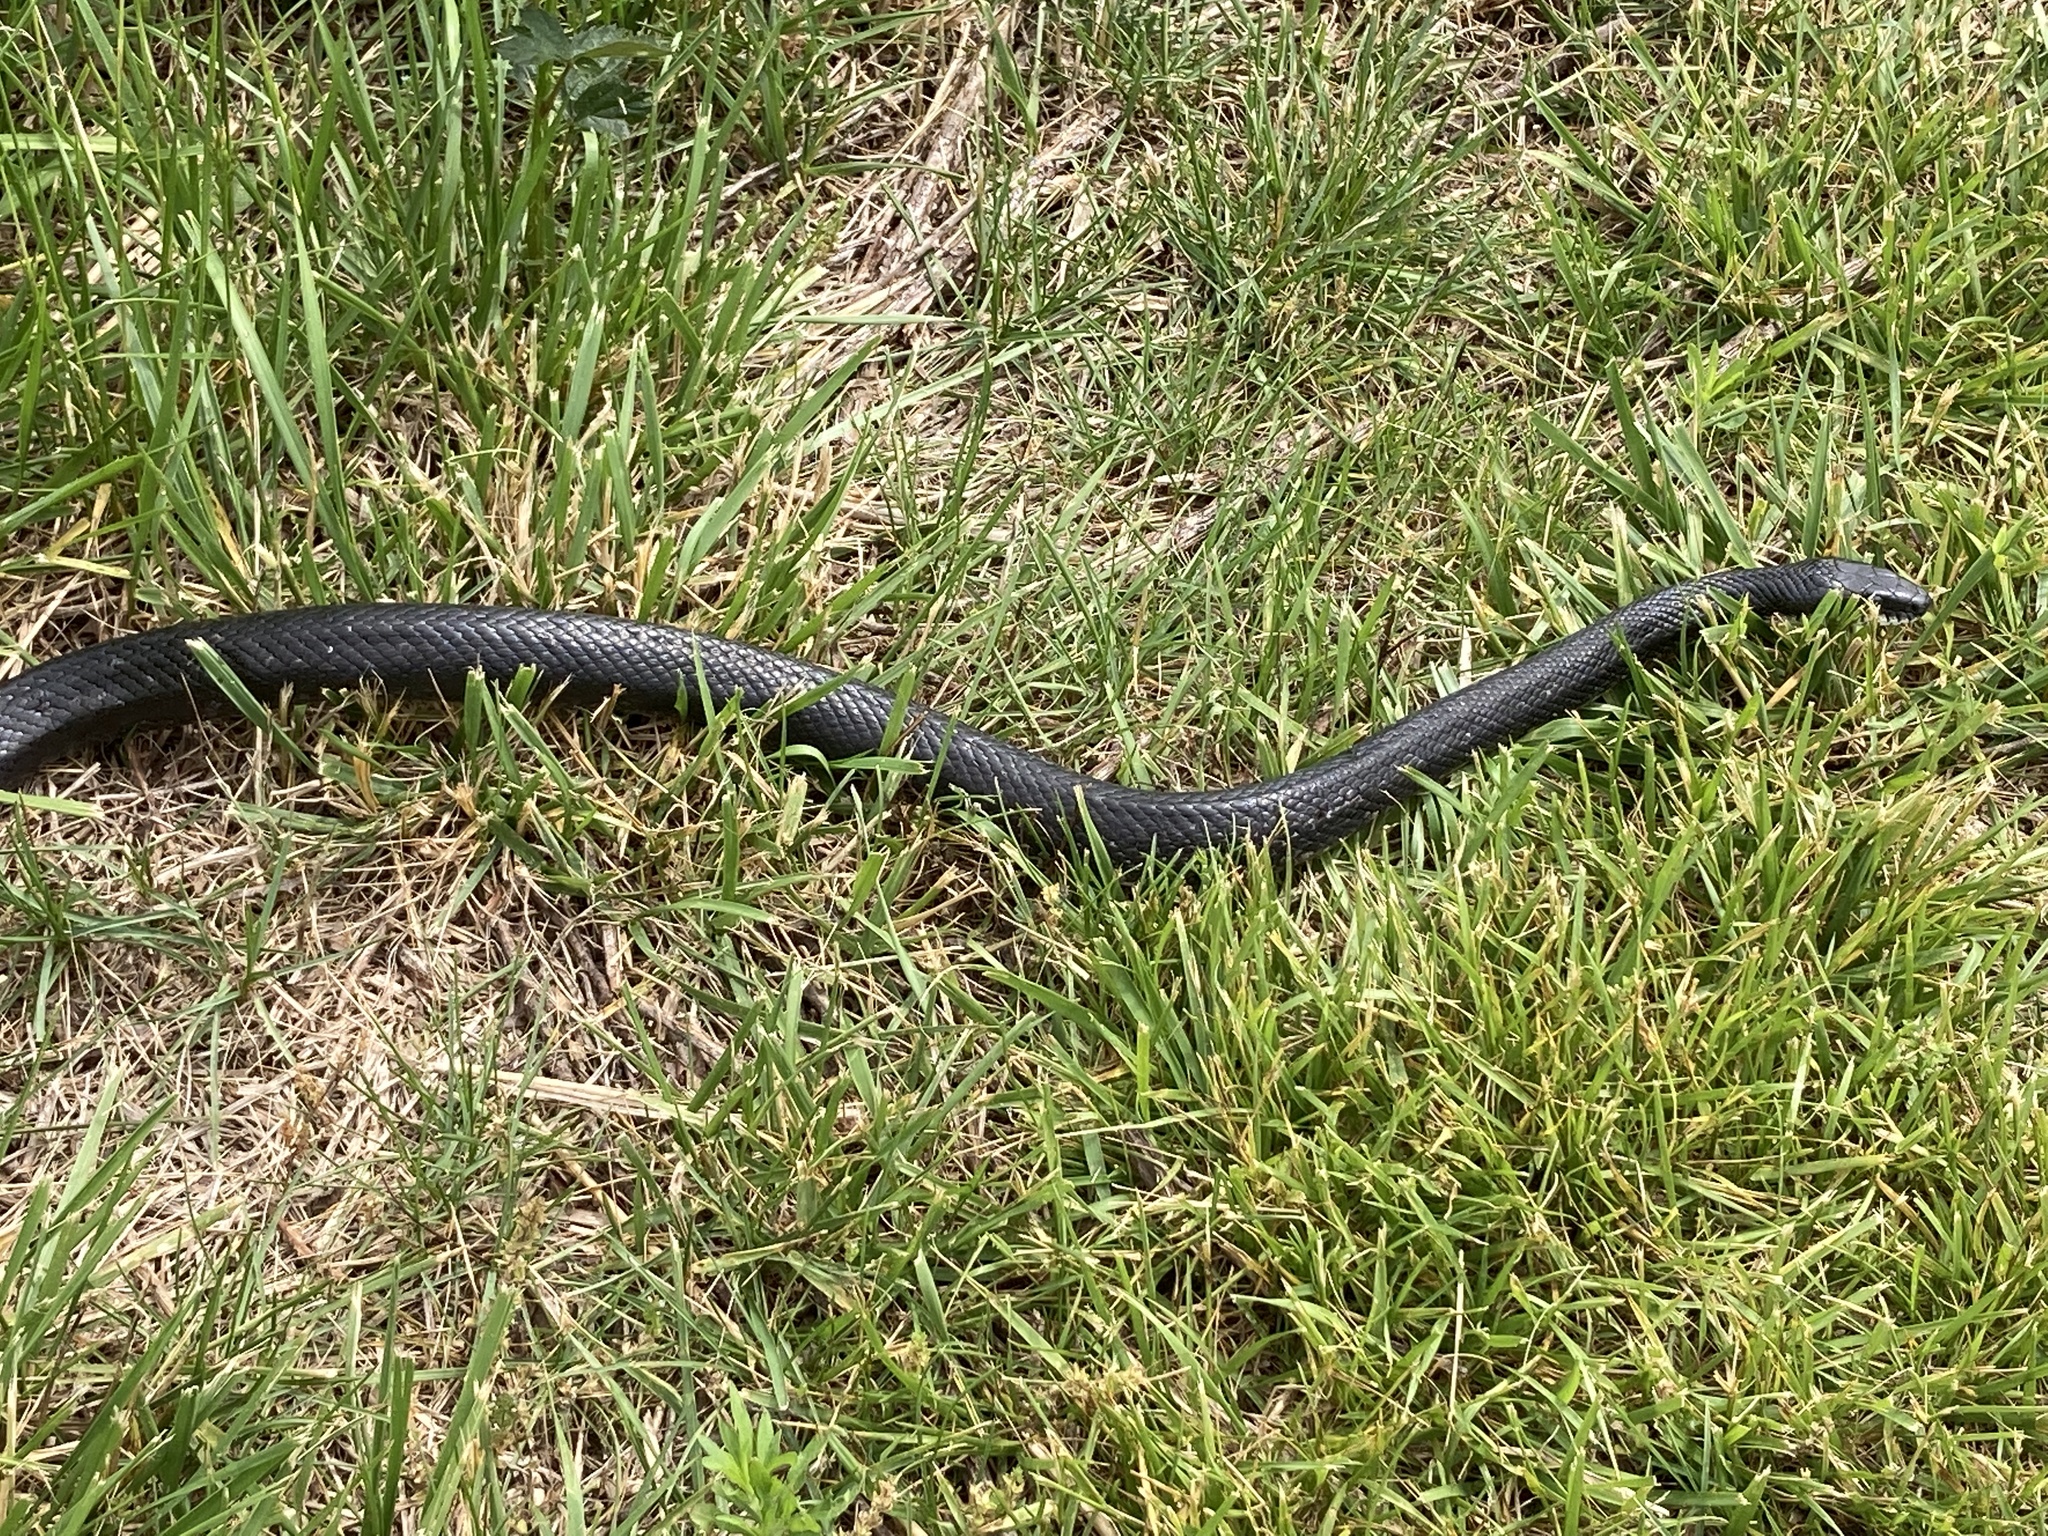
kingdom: Animalia
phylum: Chordata
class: Squamata
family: Colubridae
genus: Pantherophis
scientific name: Pantherophis alleghaniensis
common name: Eastern rat snake
